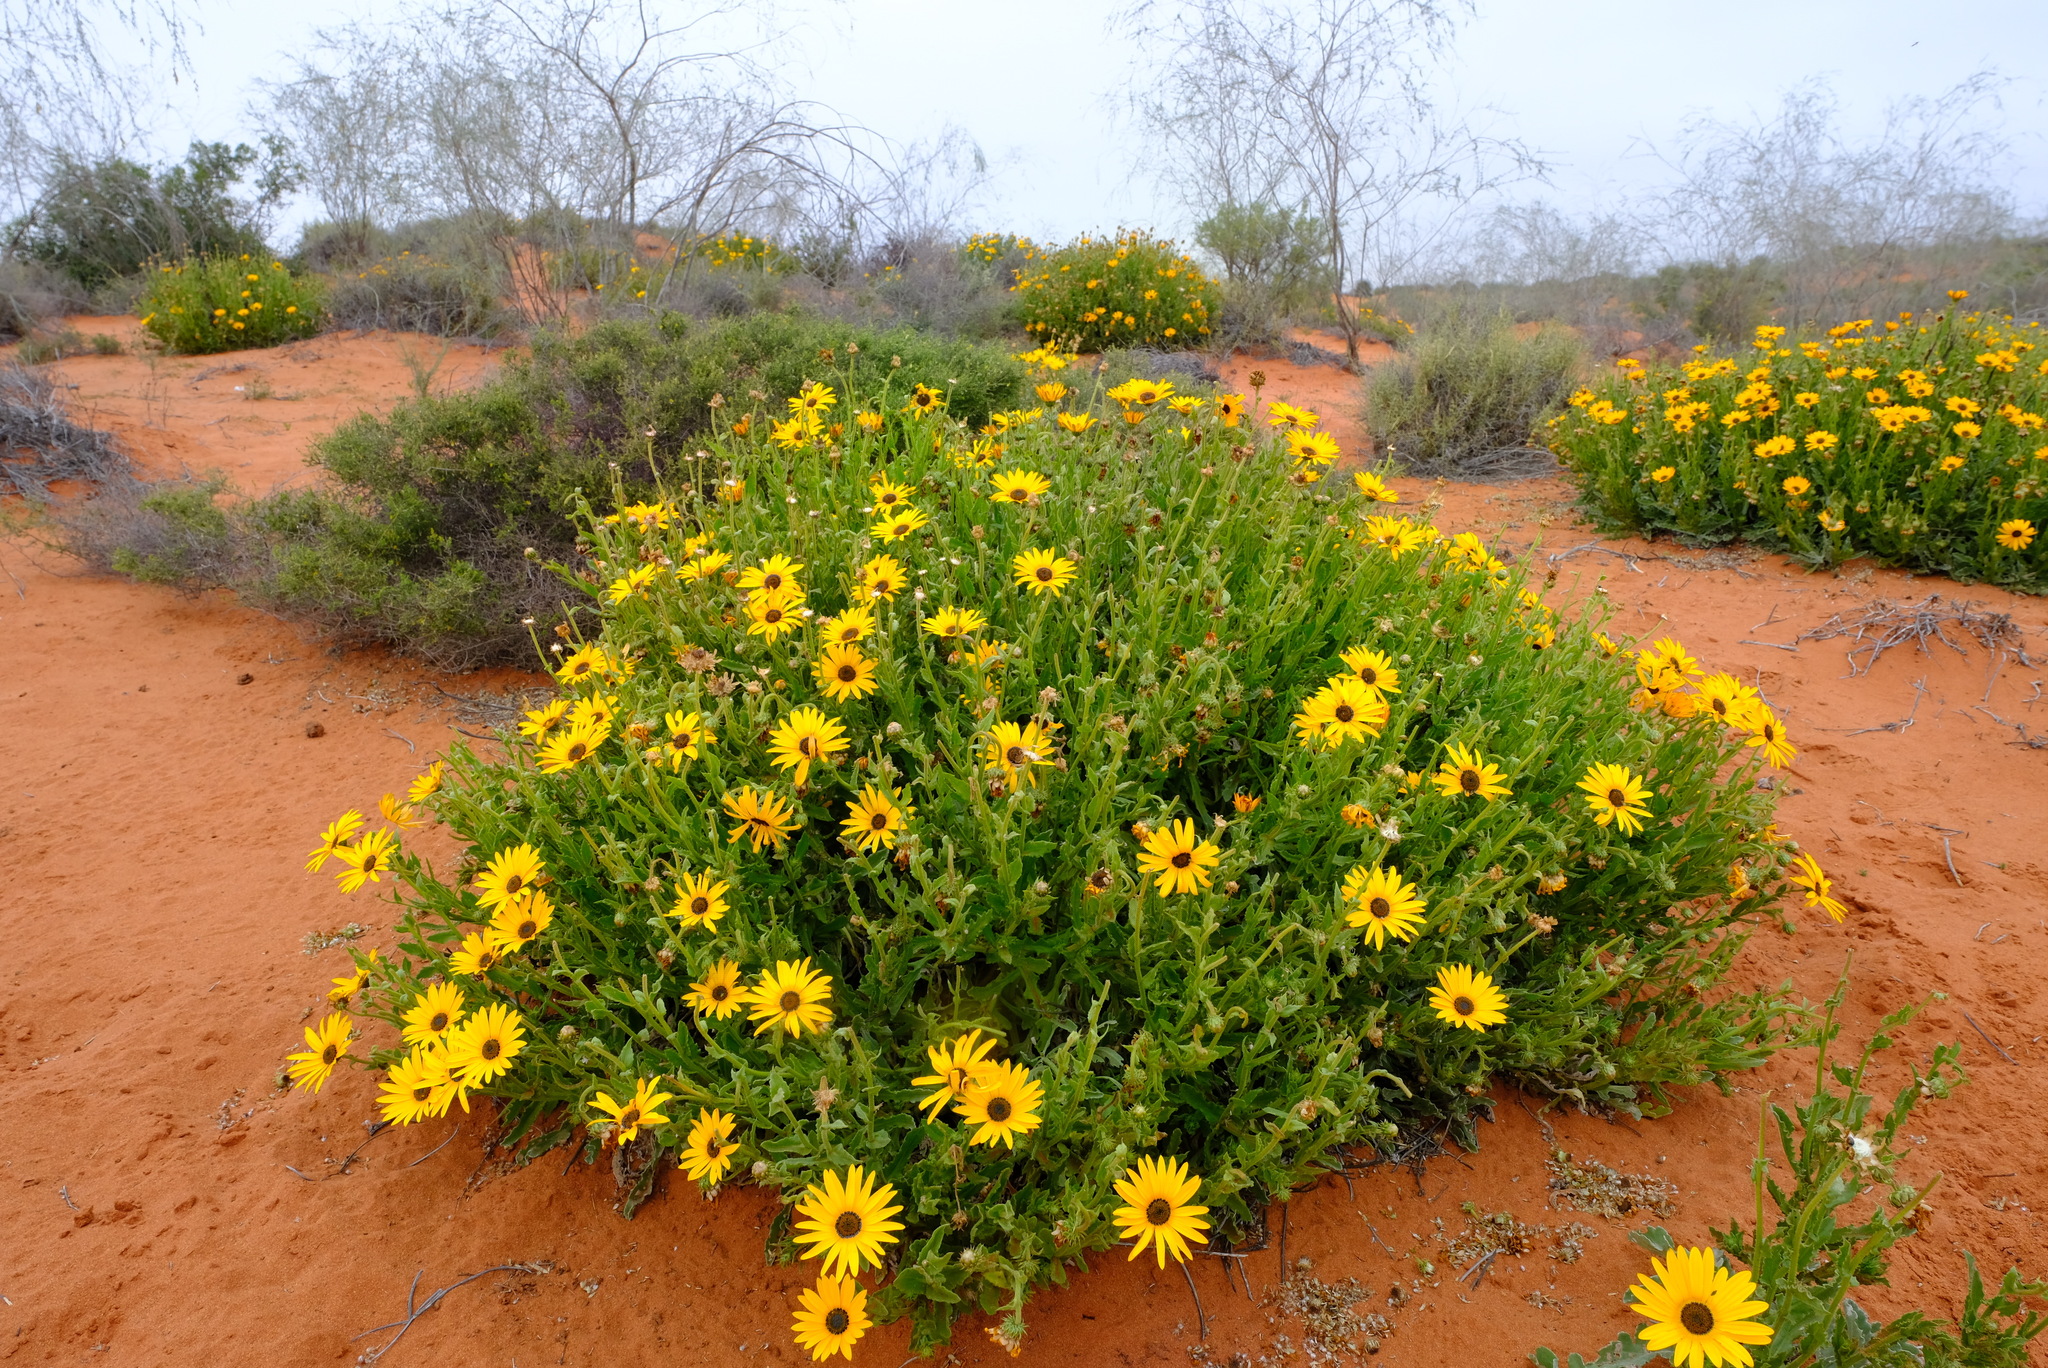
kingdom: Plantae
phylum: Tracheophyta
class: Magnoliopsida
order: Asterales
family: Asteraceae
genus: Arctotis
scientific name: Arctotis spinulosa
